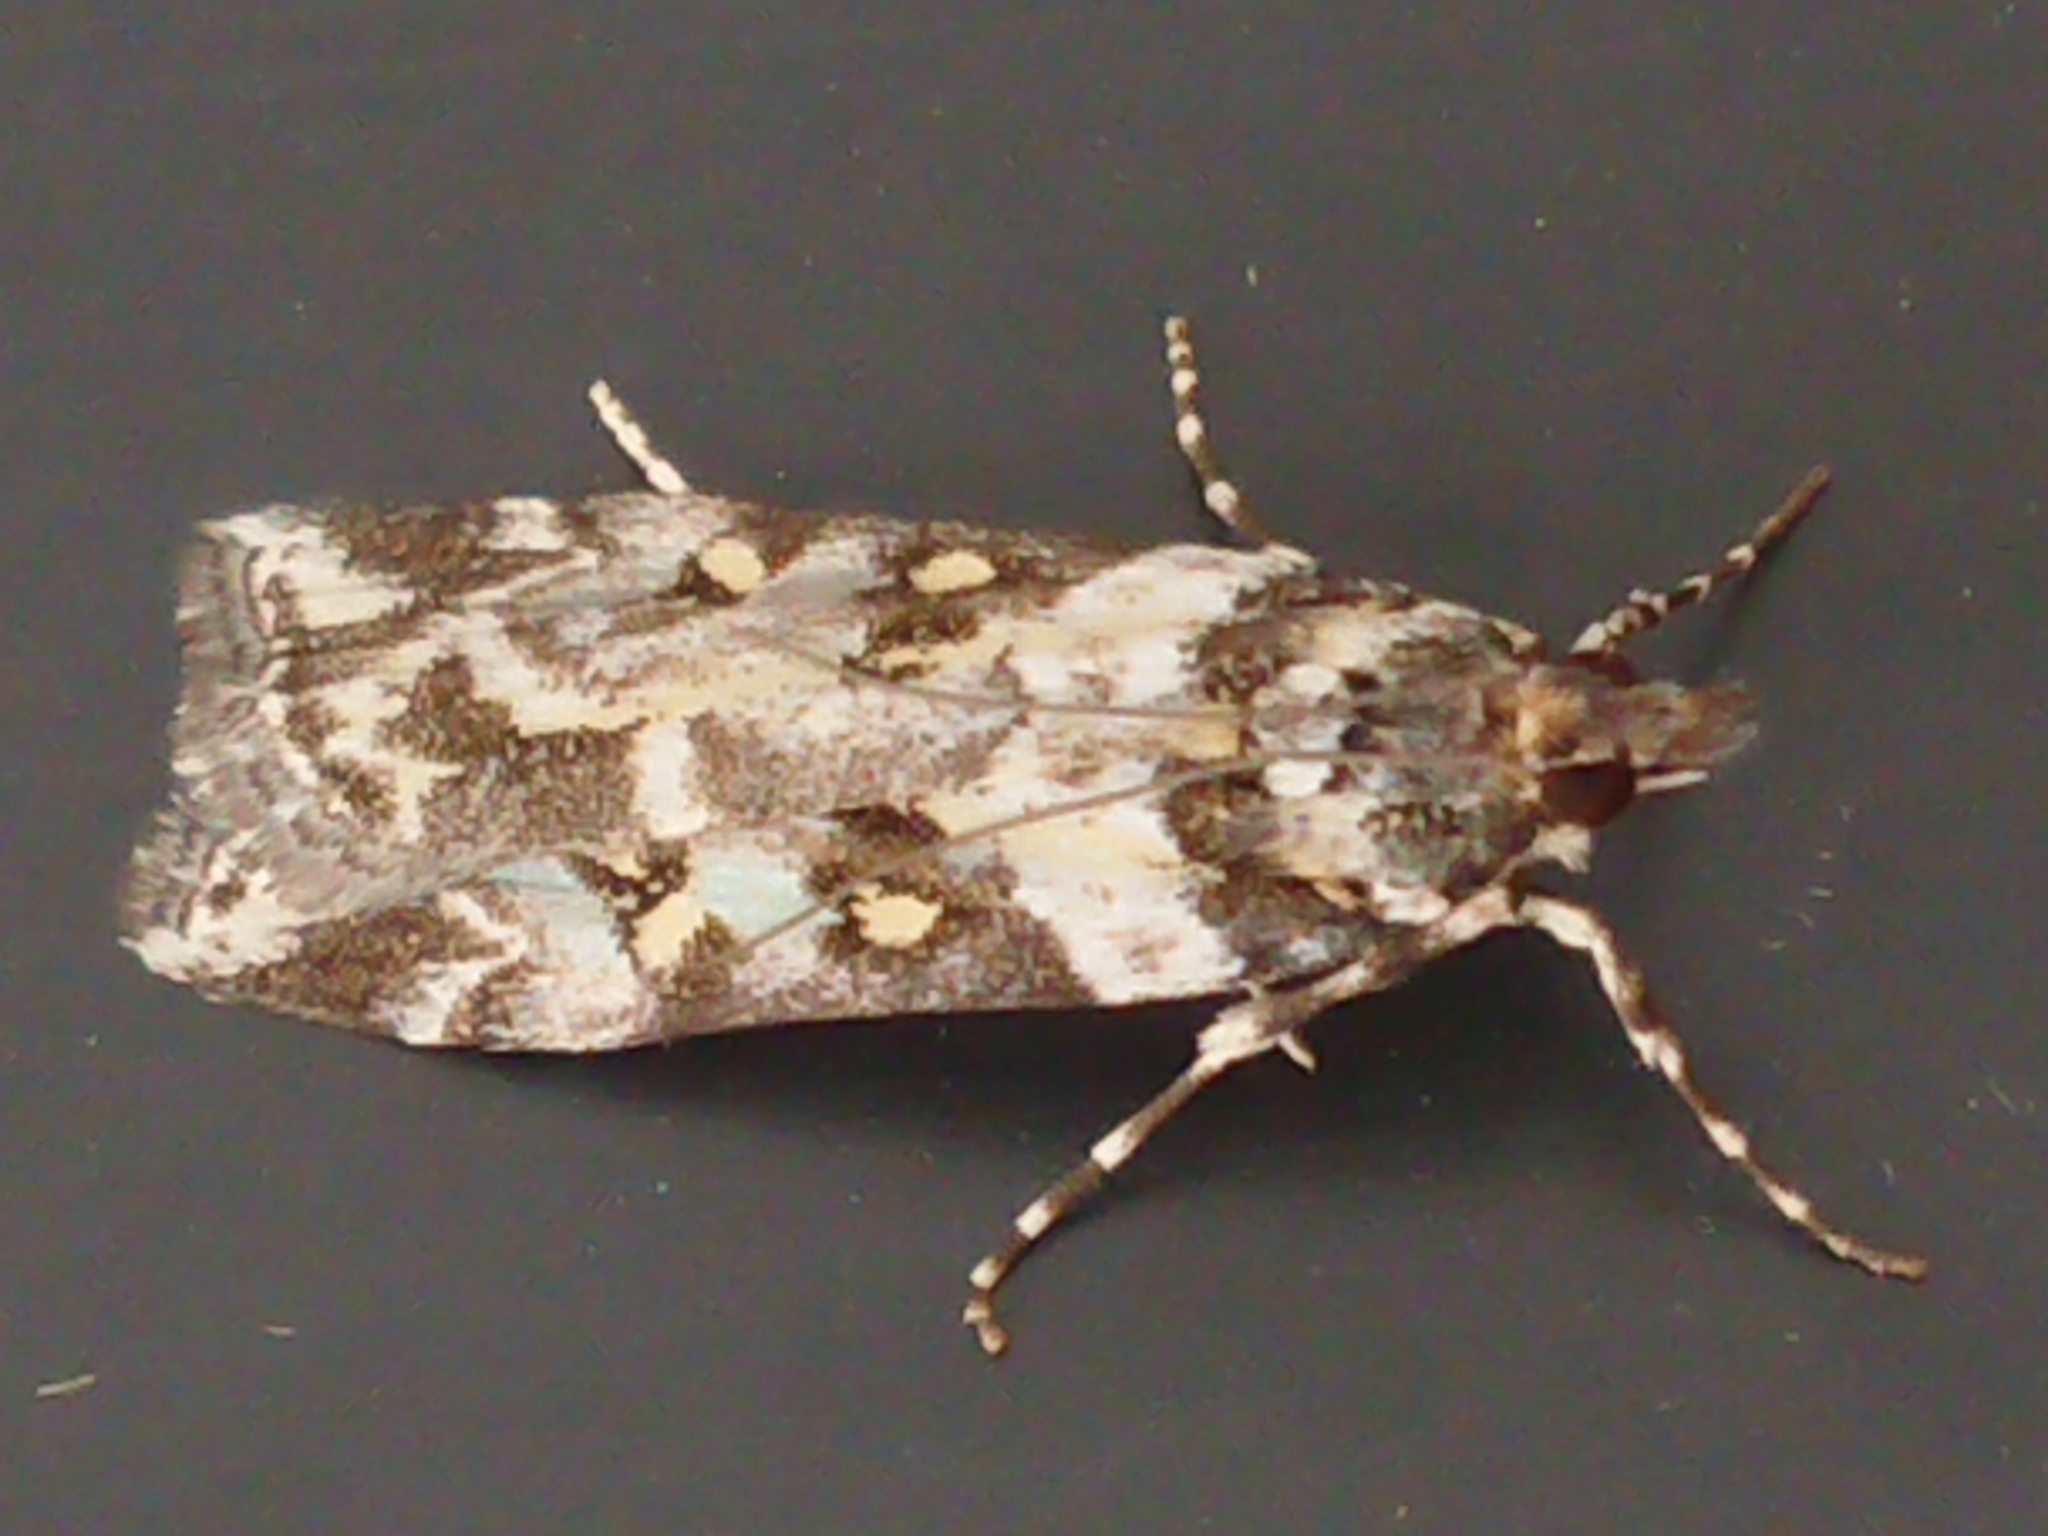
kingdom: Animalia
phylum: Arthropoda
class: Insecta
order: Lepidoptera
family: Crambidae
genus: Eudonia
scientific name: Eudonia diphtheralis
